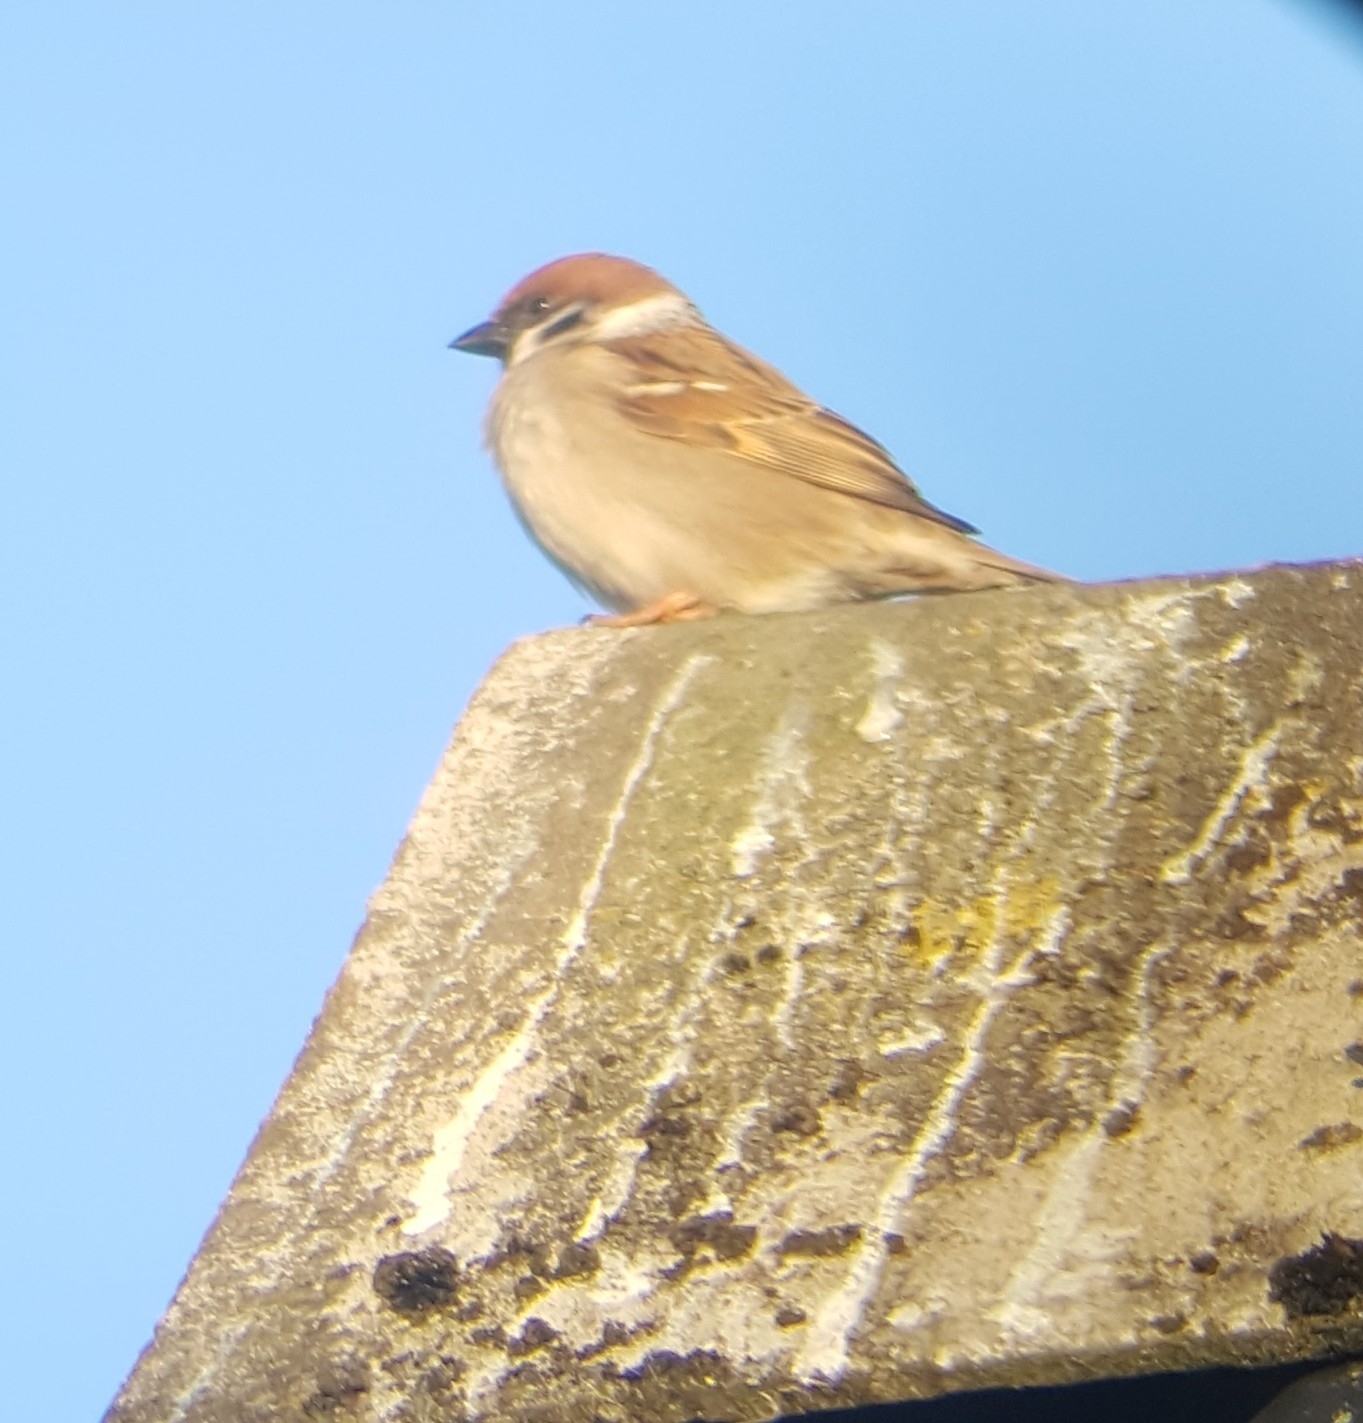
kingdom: Animalia
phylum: Chordata
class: Aves
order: Passeriformes
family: Passeridae
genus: Passer
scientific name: Passer montanus
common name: Eurasian tree sparrow
